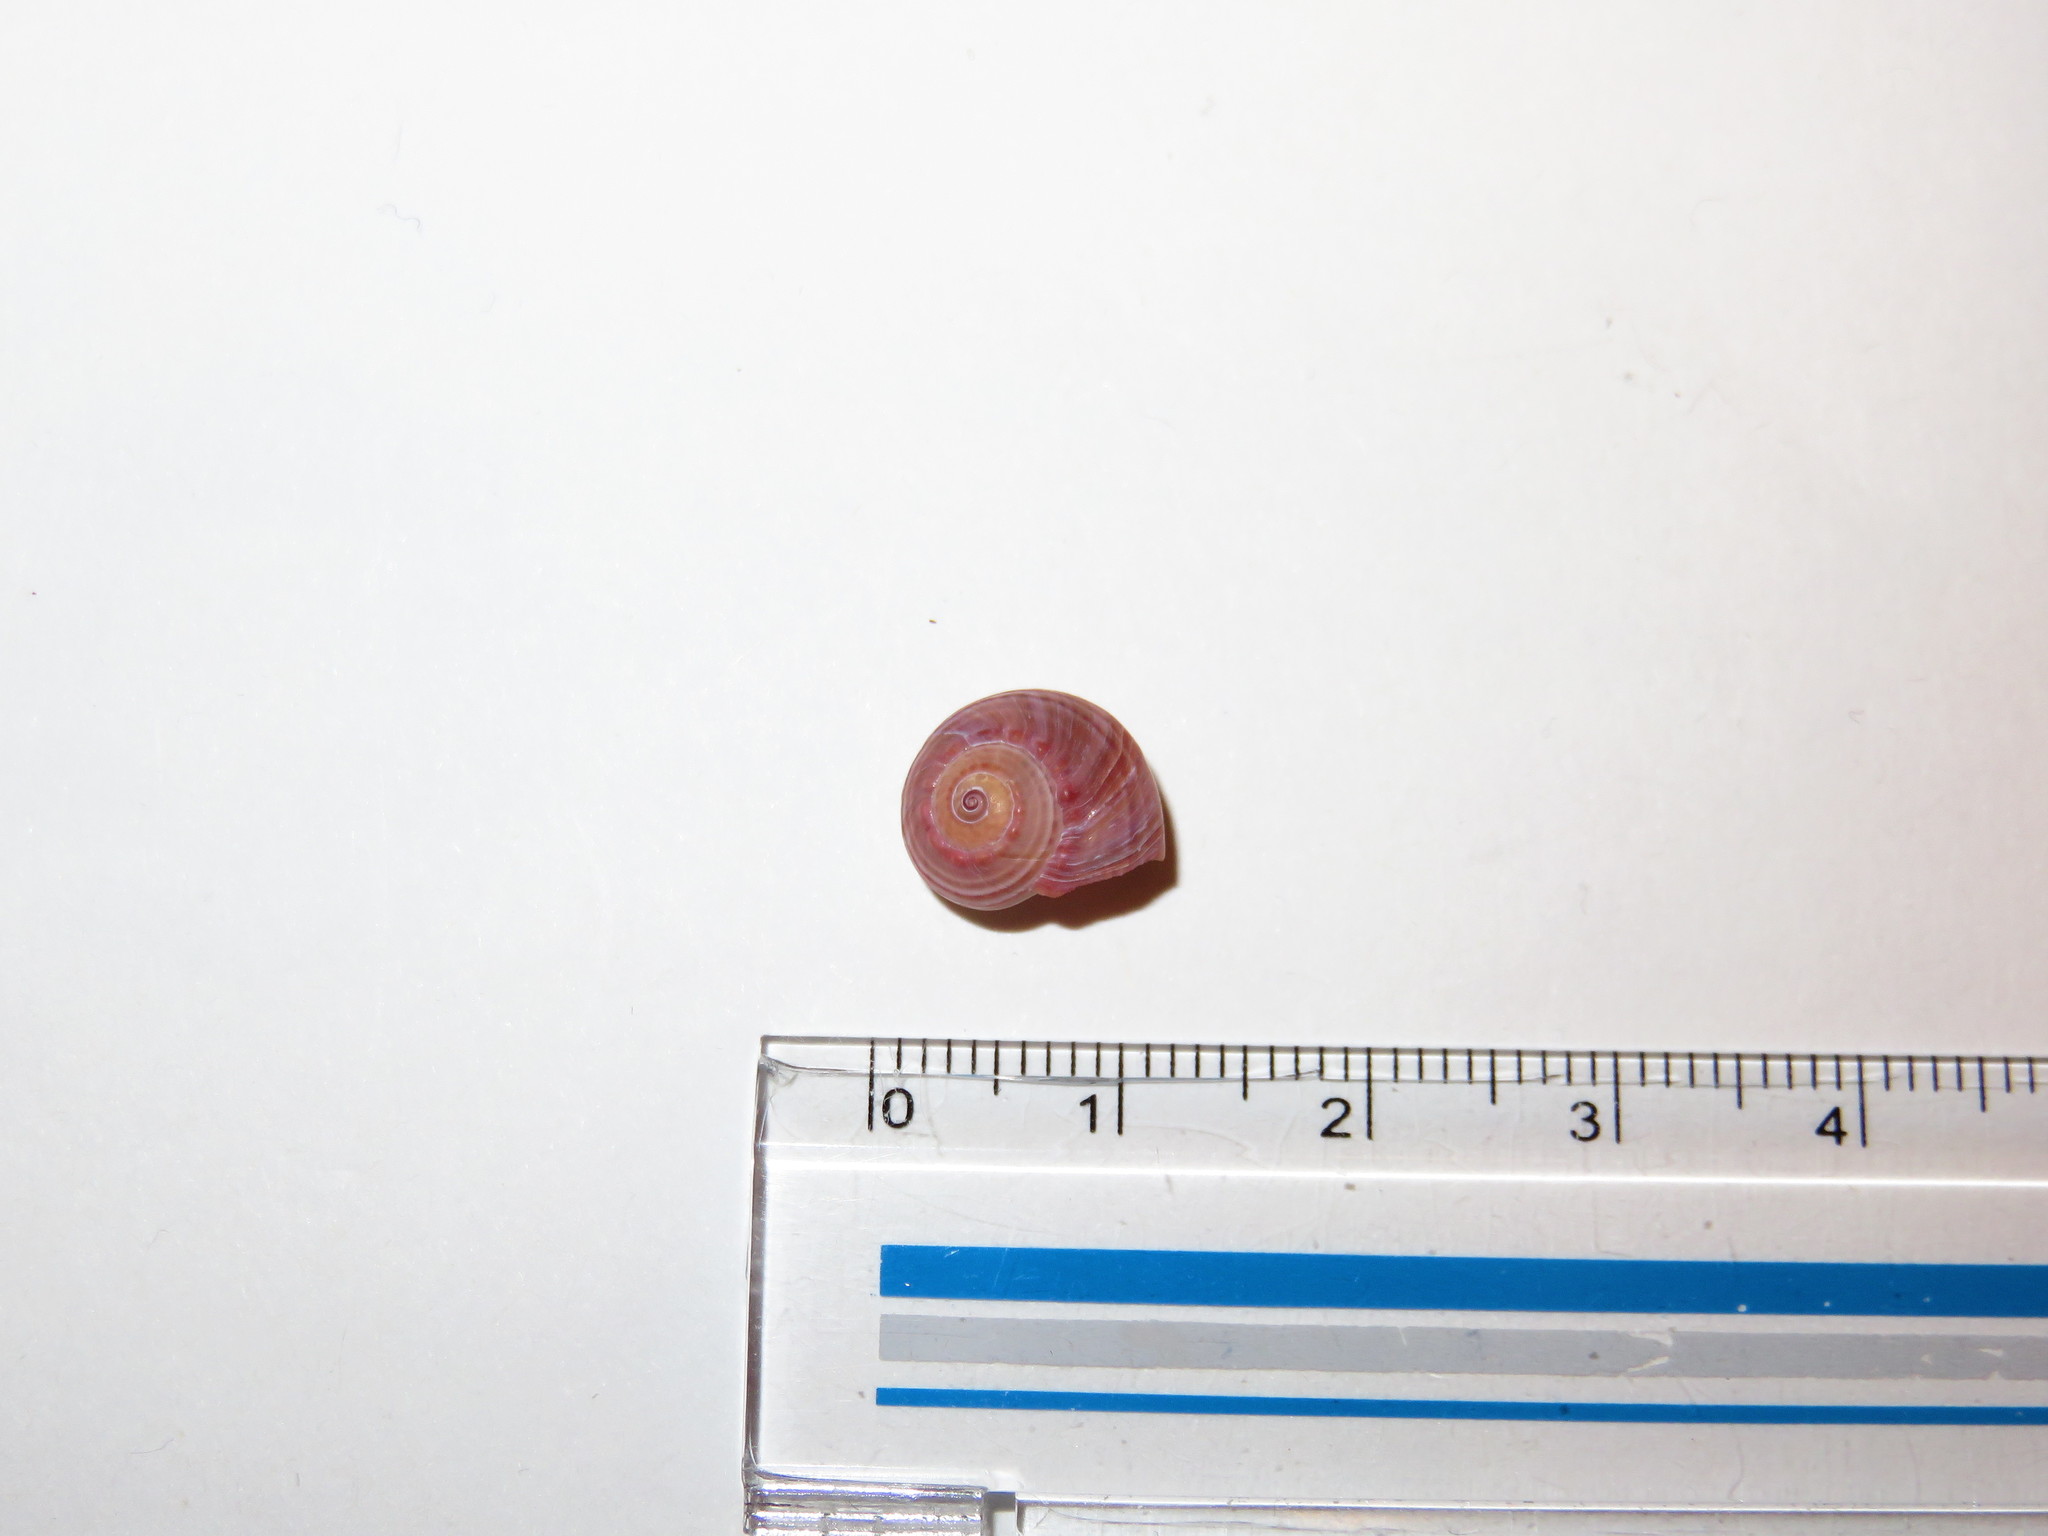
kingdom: Animalia
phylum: Mollusca
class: Gastropoda
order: Trochida
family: Trochidae
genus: Umbonium
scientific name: Umbonium moniliferum
